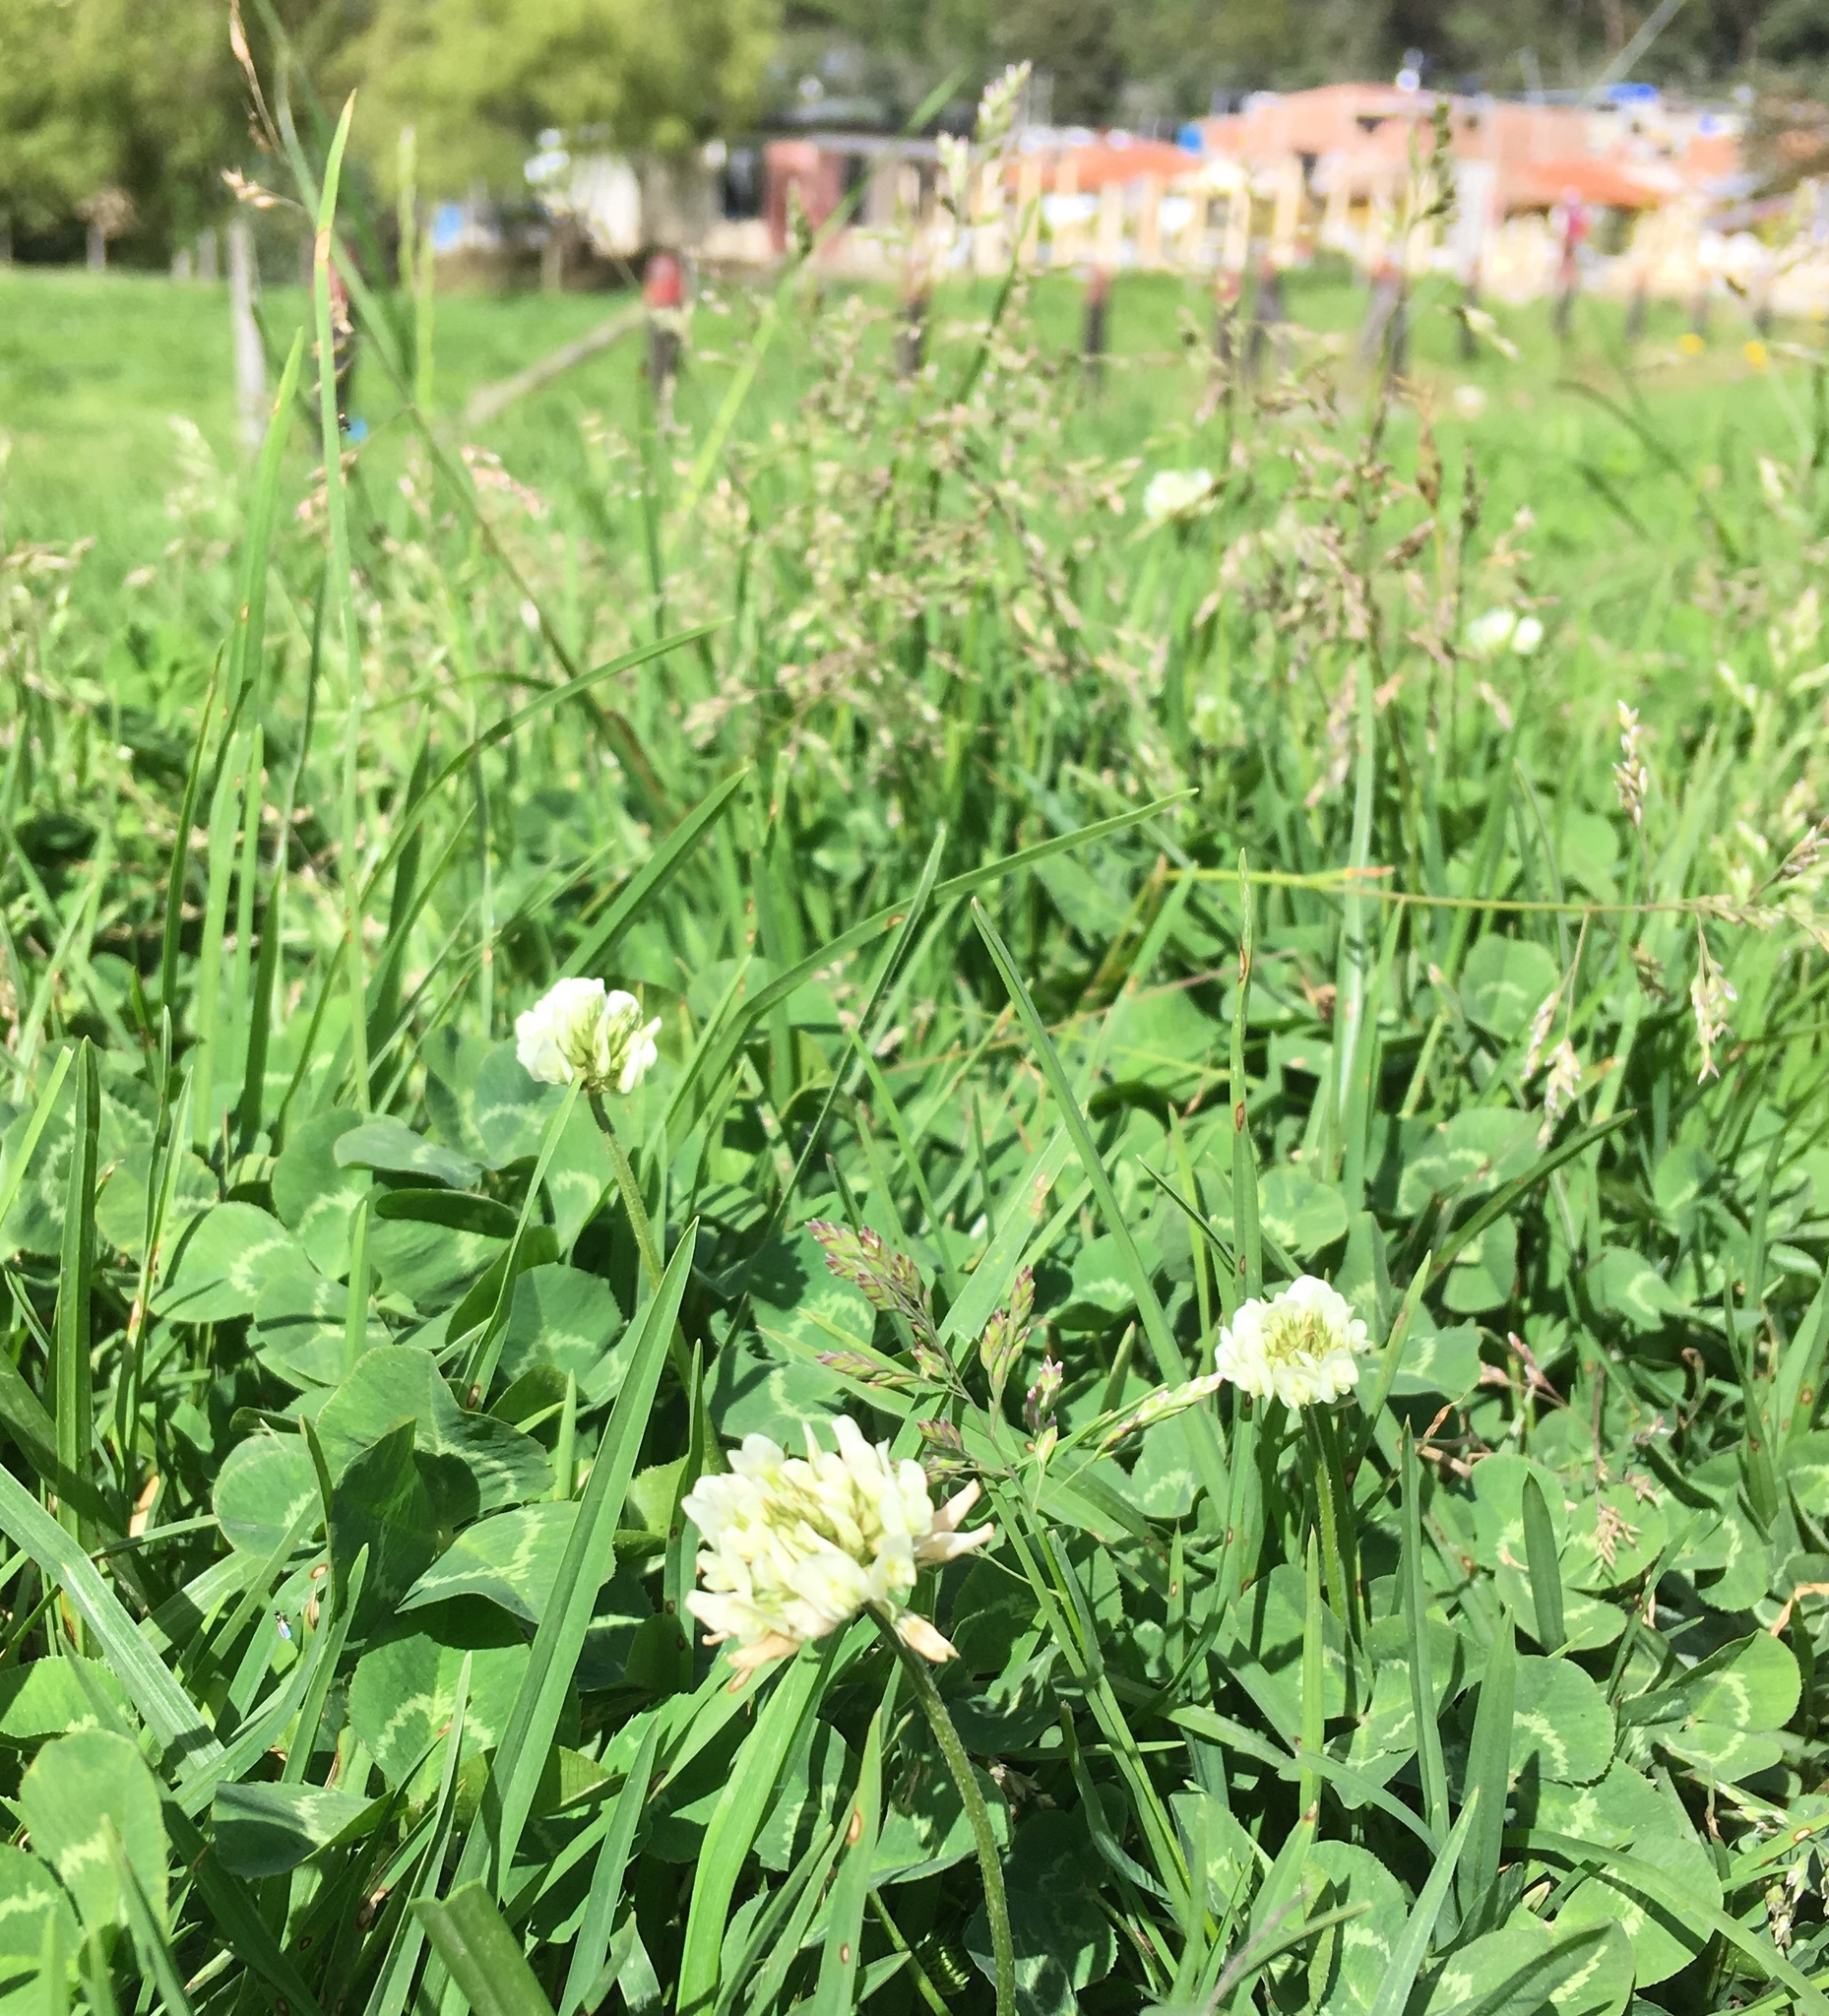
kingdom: Plantae
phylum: Tracheophyta
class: Magnoliopsida
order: Fabales
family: Fabaceae
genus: Trifolium
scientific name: Trifolium repens
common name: White clover
